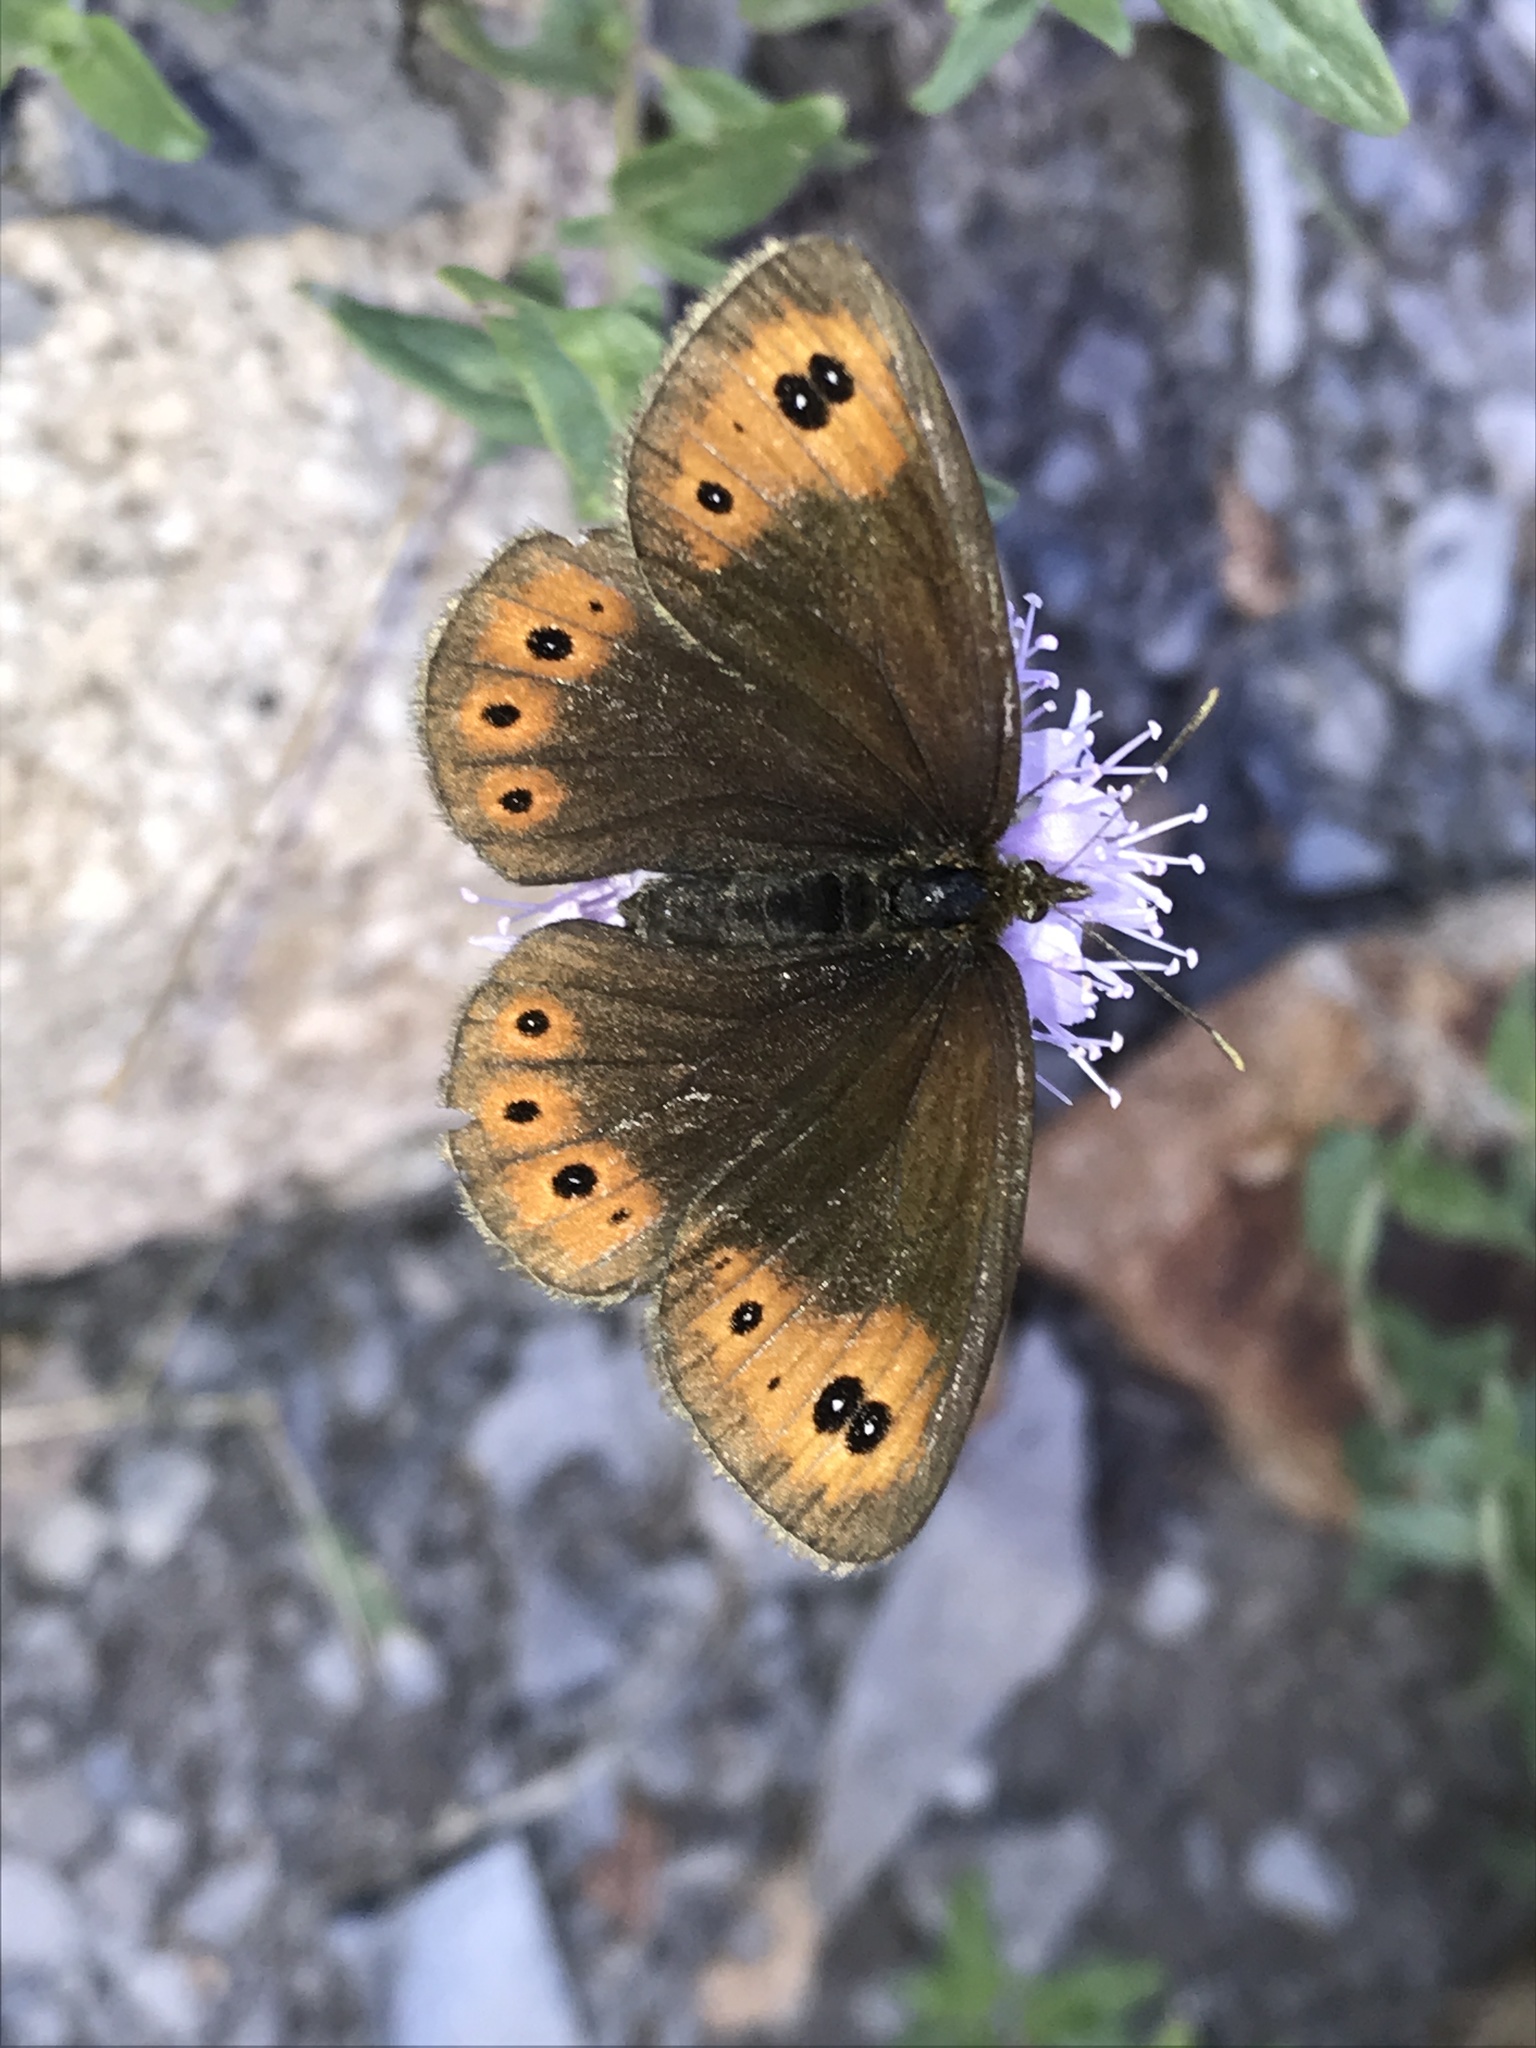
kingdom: Animalia
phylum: Arthropoda
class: Insecta
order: Lepidoptera
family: Nymphalidae
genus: Erebia
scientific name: Erebia epipsodea
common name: Common alpine
